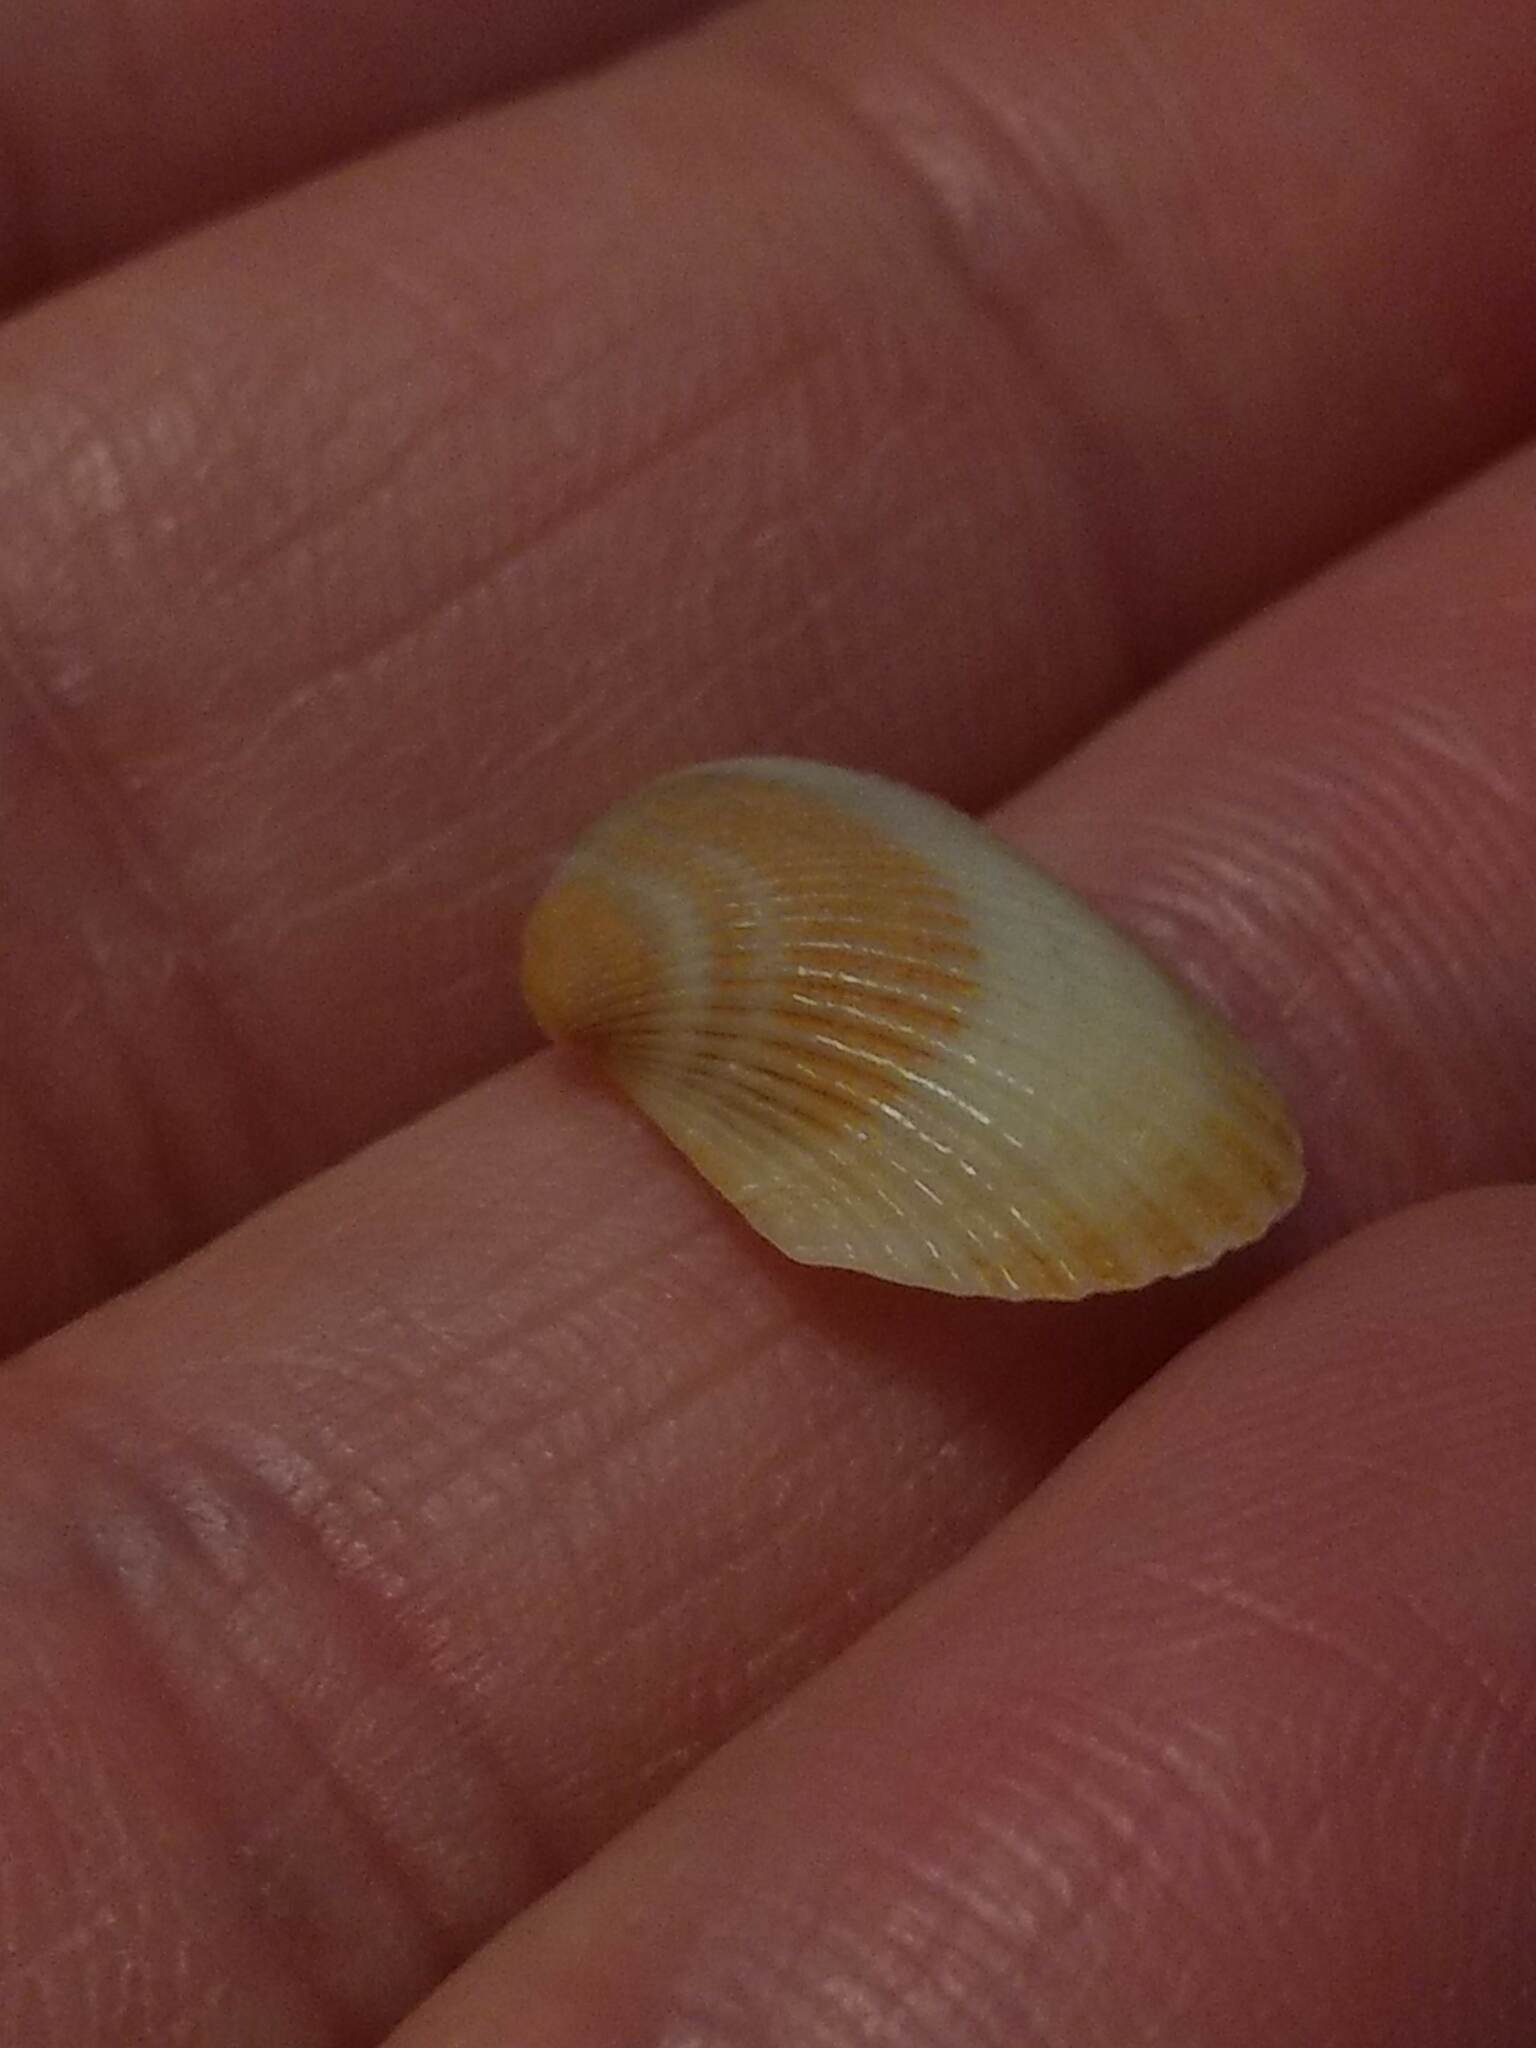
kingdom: Animalia
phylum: Mollusca
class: Bivalvia
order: Arcida
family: Arcidae
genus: Anadara
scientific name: Anadara transversa
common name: Transverse ark
